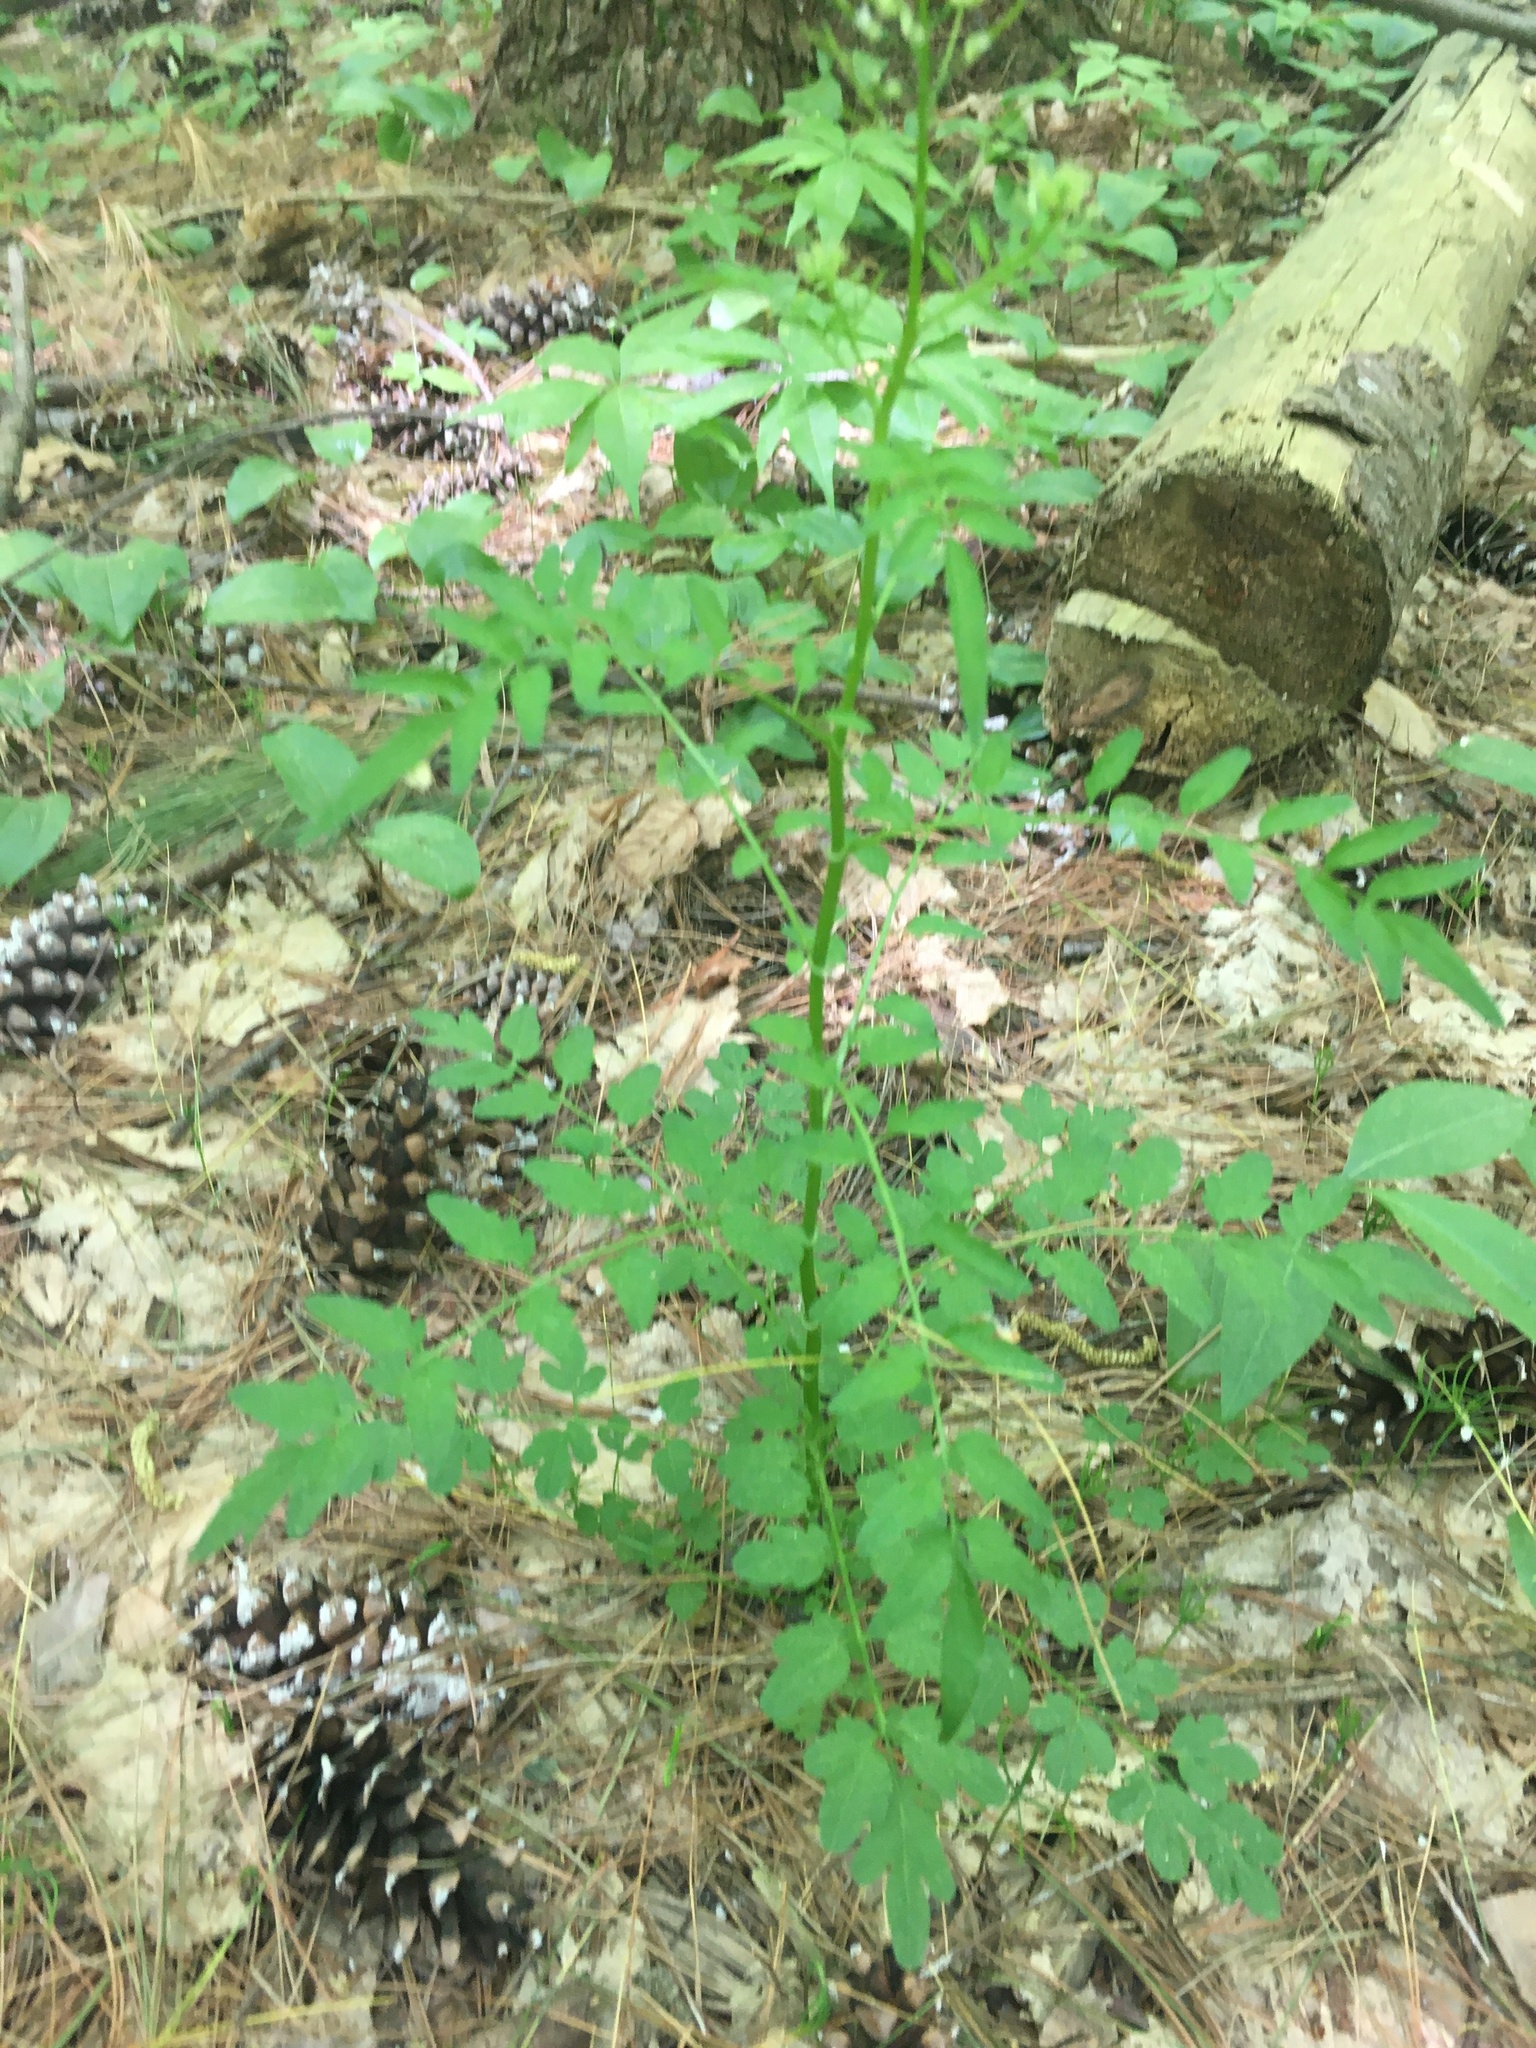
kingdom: Plantae
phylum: Tracheophyta
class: Magnoliopsida
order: Brassicales
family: Brassicaceae
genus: Cardamine
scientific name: Cardamine impatiens
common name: Narrow-leaved bitter-cress
